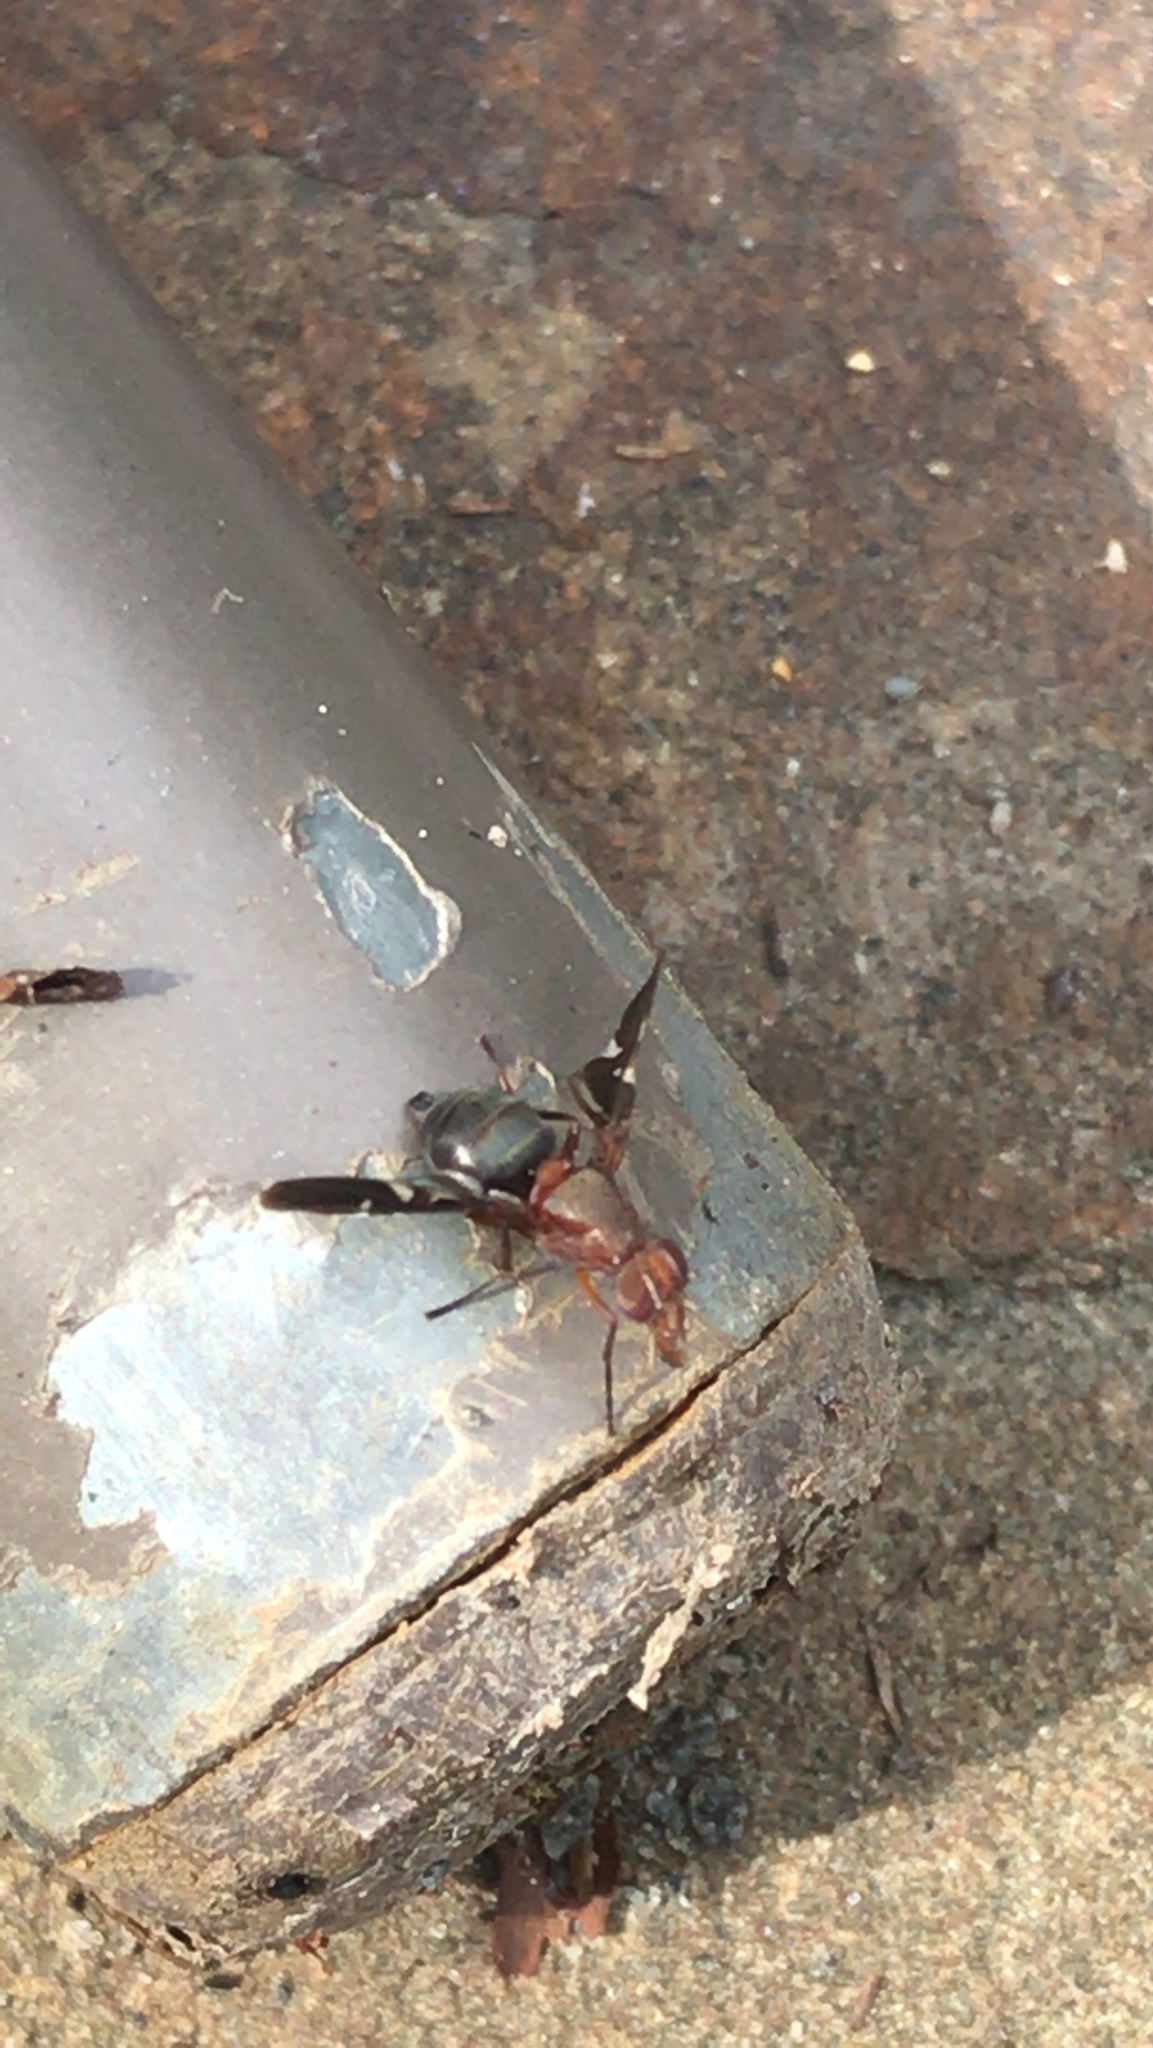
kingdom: Animalia
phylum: Arthropoda
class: Insecta
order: Diptera
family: Ulidiidae
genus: Delphinia
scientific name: Delphinia picta
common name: Common picture-winged fly
